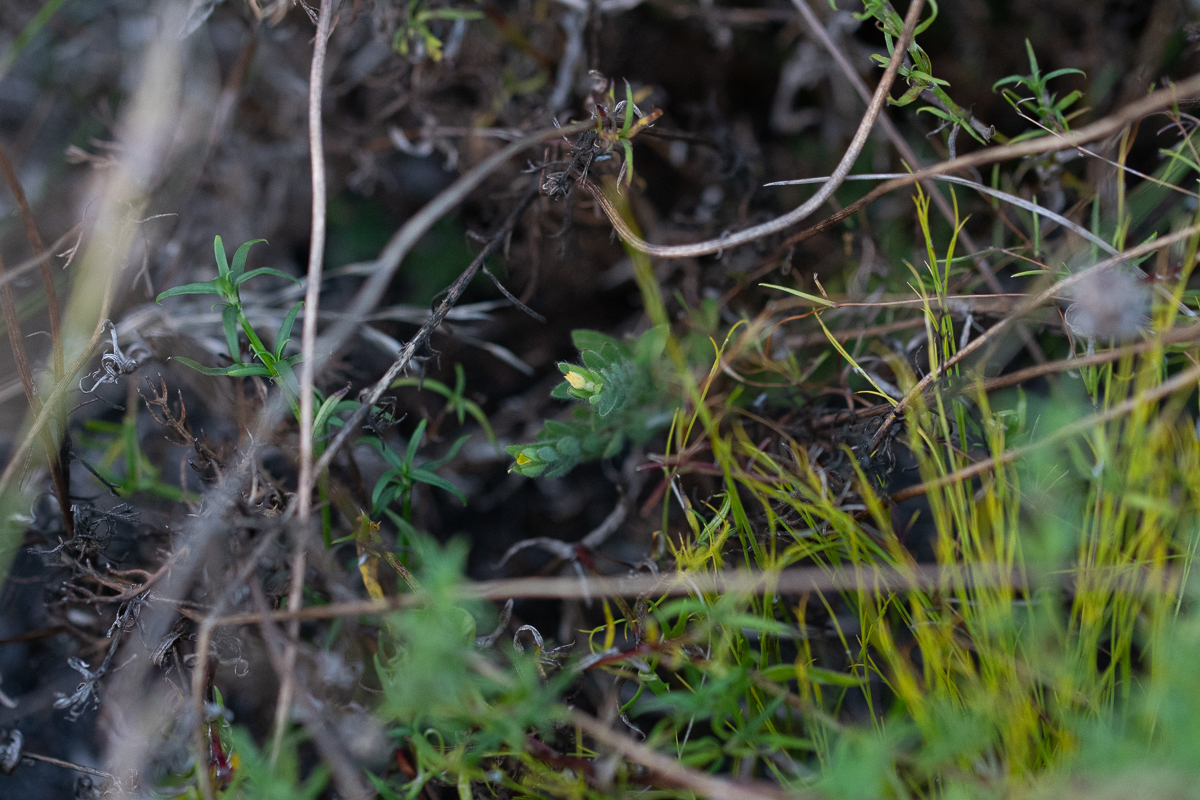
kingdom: Plantae
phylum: Tracheophyta
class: Magnoliopsida
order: Malvales
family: Thymelaeaceae
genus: Gnidia
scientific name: Gnidia humilis
